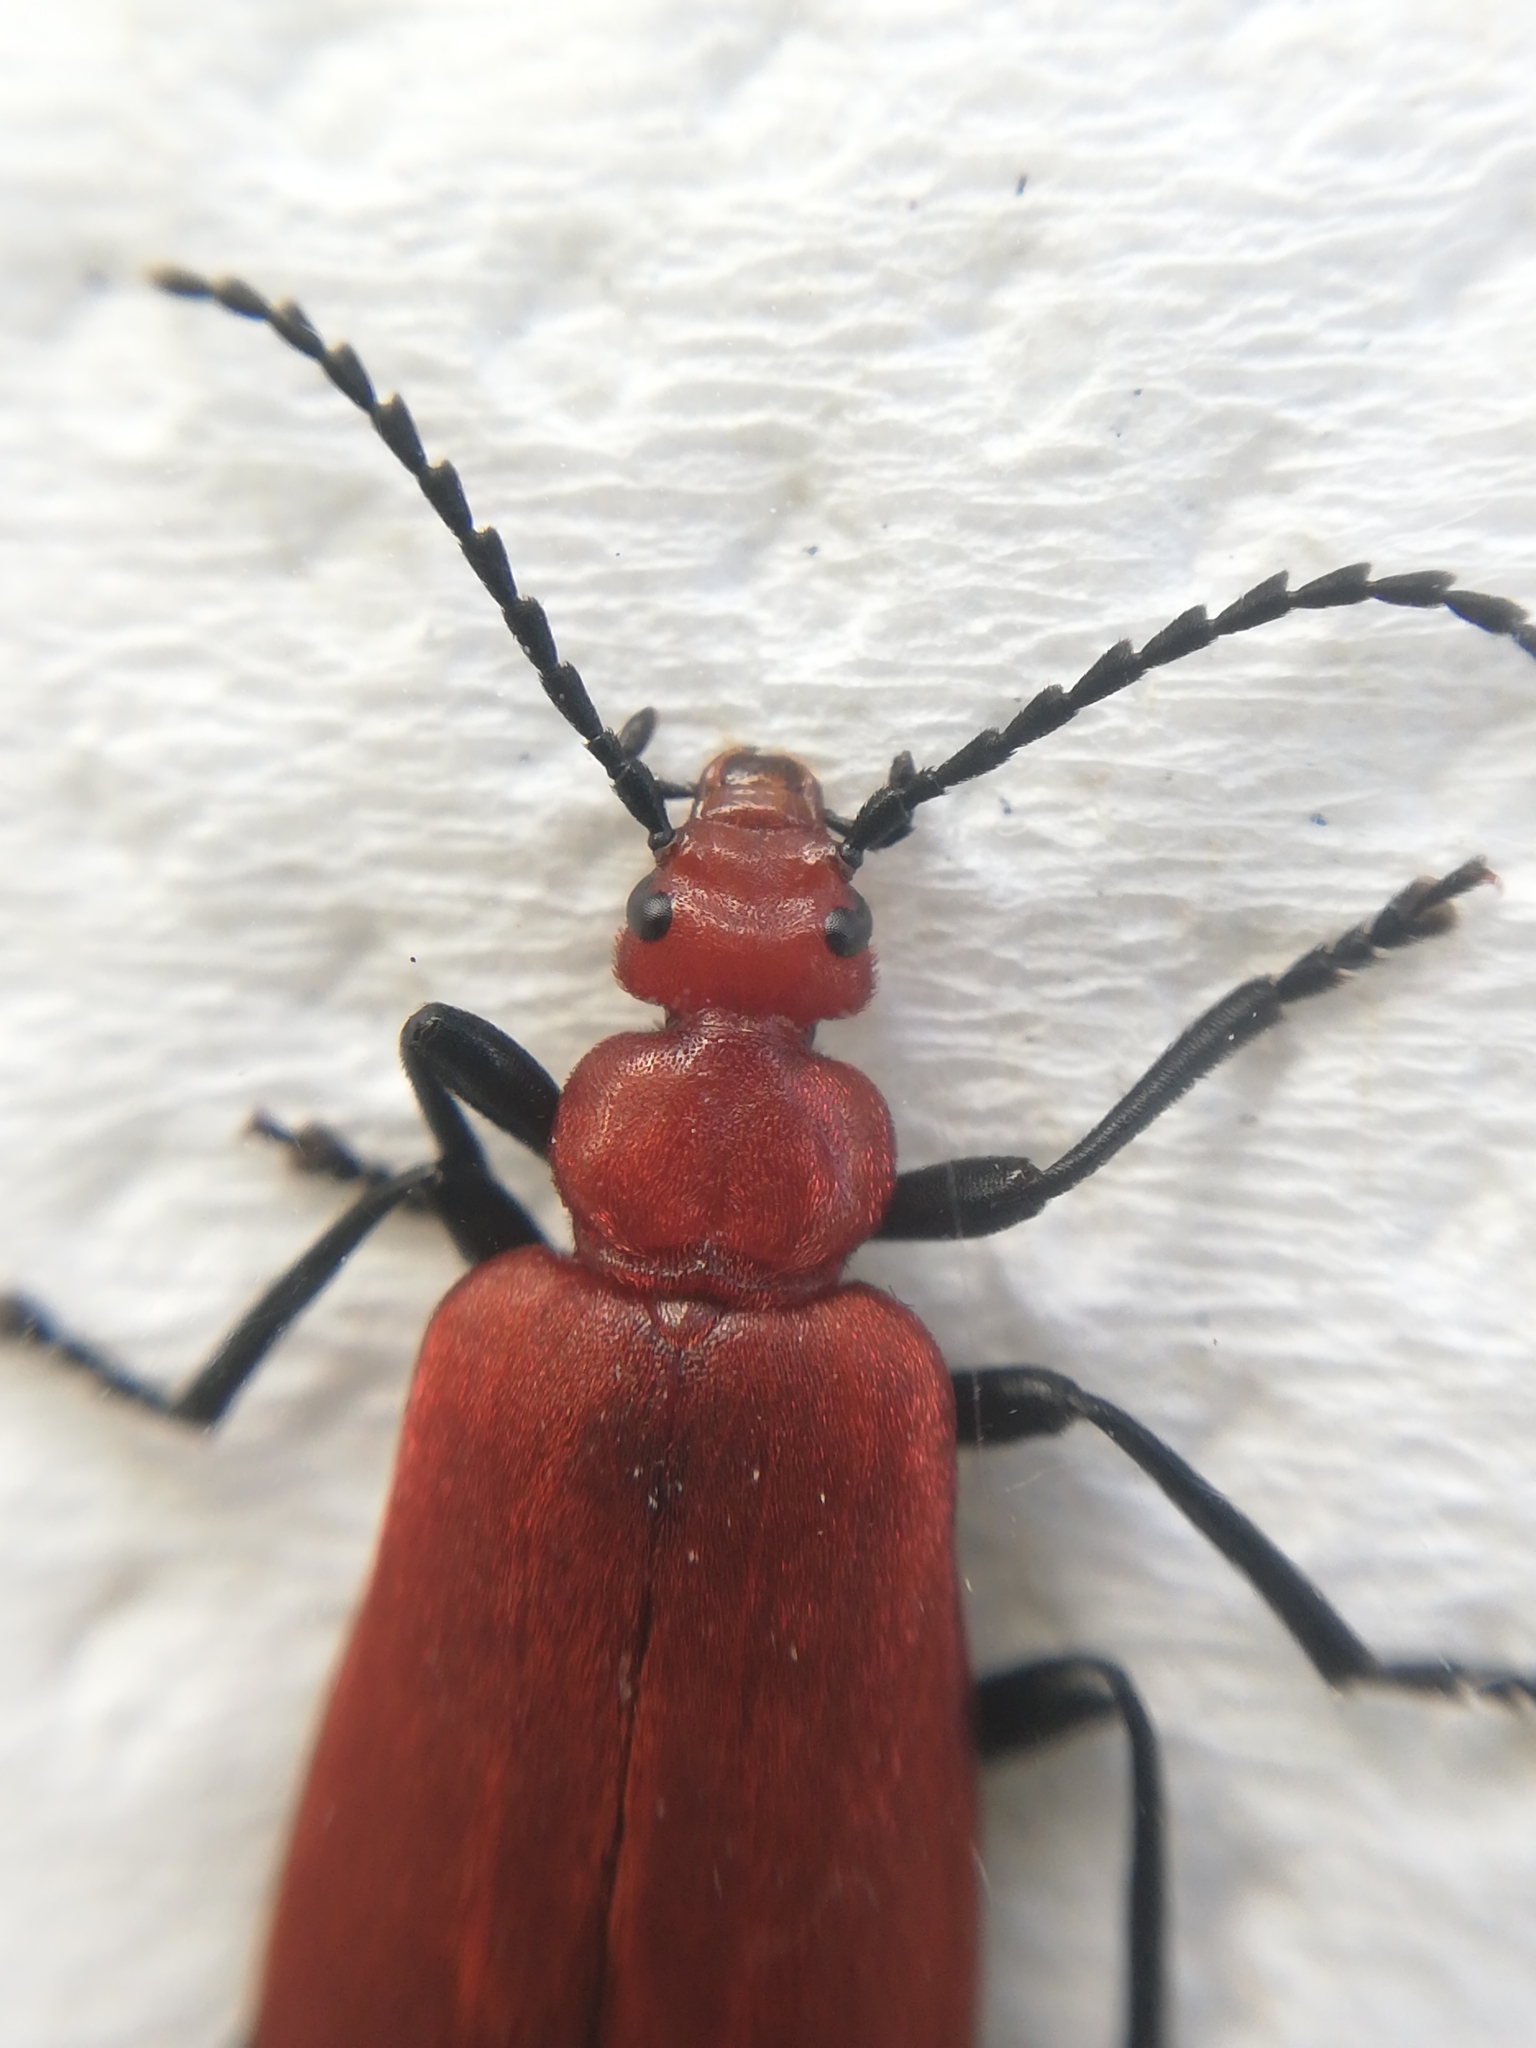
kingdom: Animalia
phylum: Arthropoda
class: Insecta
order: Coleoptera
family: Pyrochroidae
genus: Pyrochroa
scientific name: Pyrochroa serraticornis
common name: Red-headed cardinal beetle
